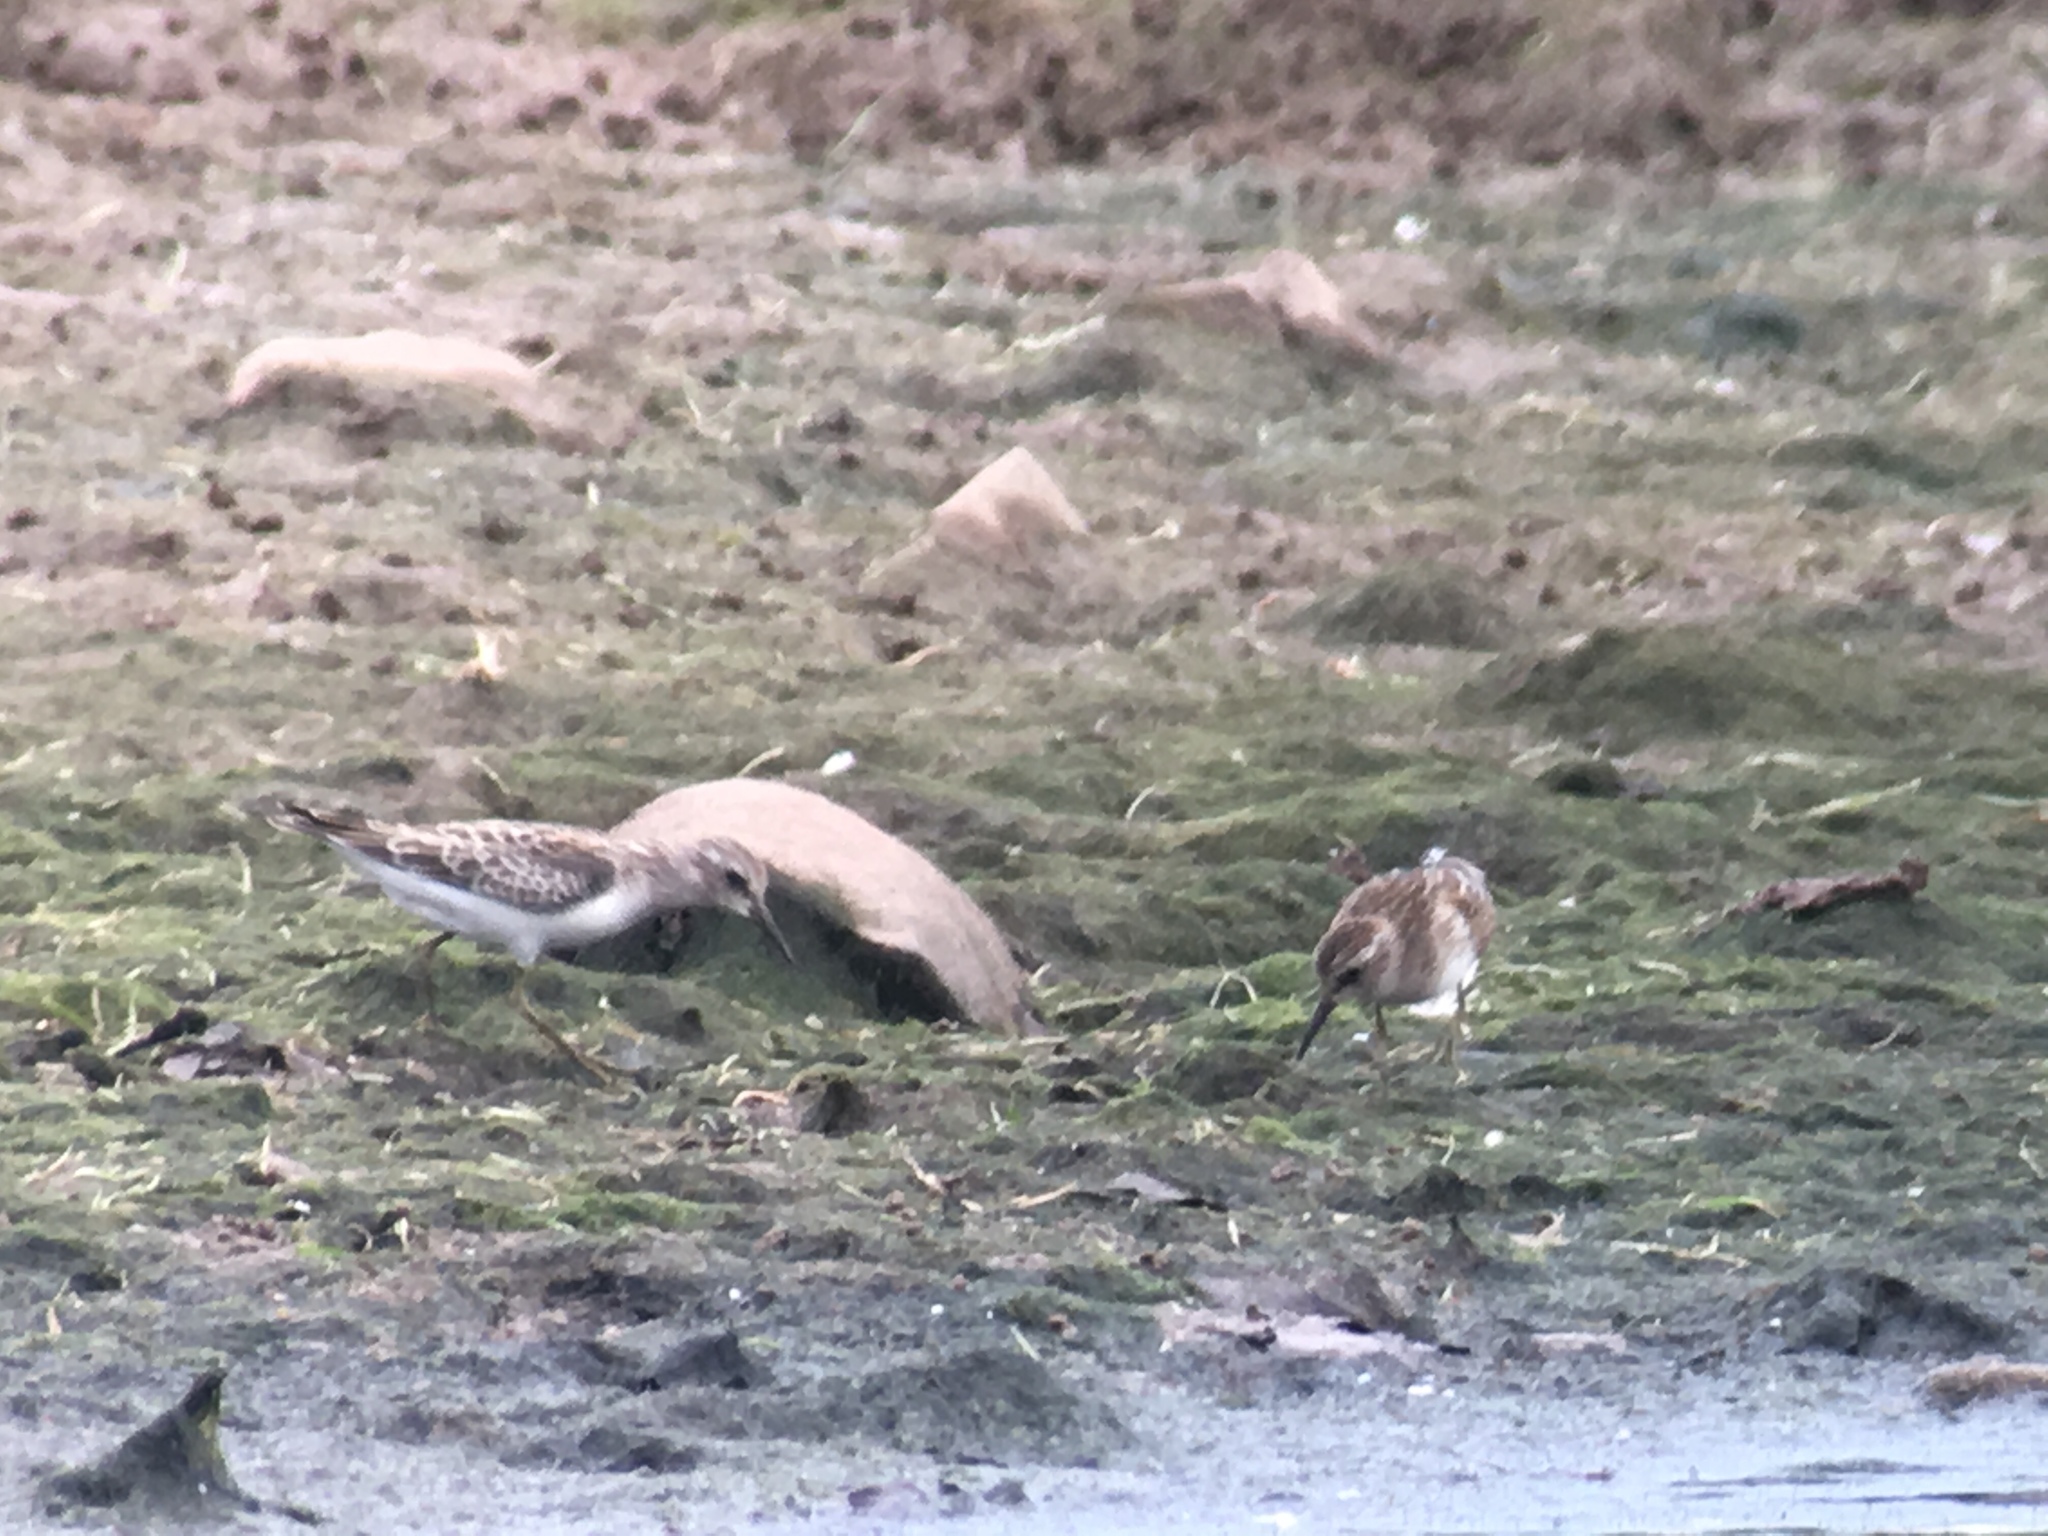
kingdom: Animalia
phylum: Chordata
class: Aves
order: Charadriiformes
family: Scolopacidae
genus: Calidris
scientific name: Calidris minutilla
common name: Least sandpiper
